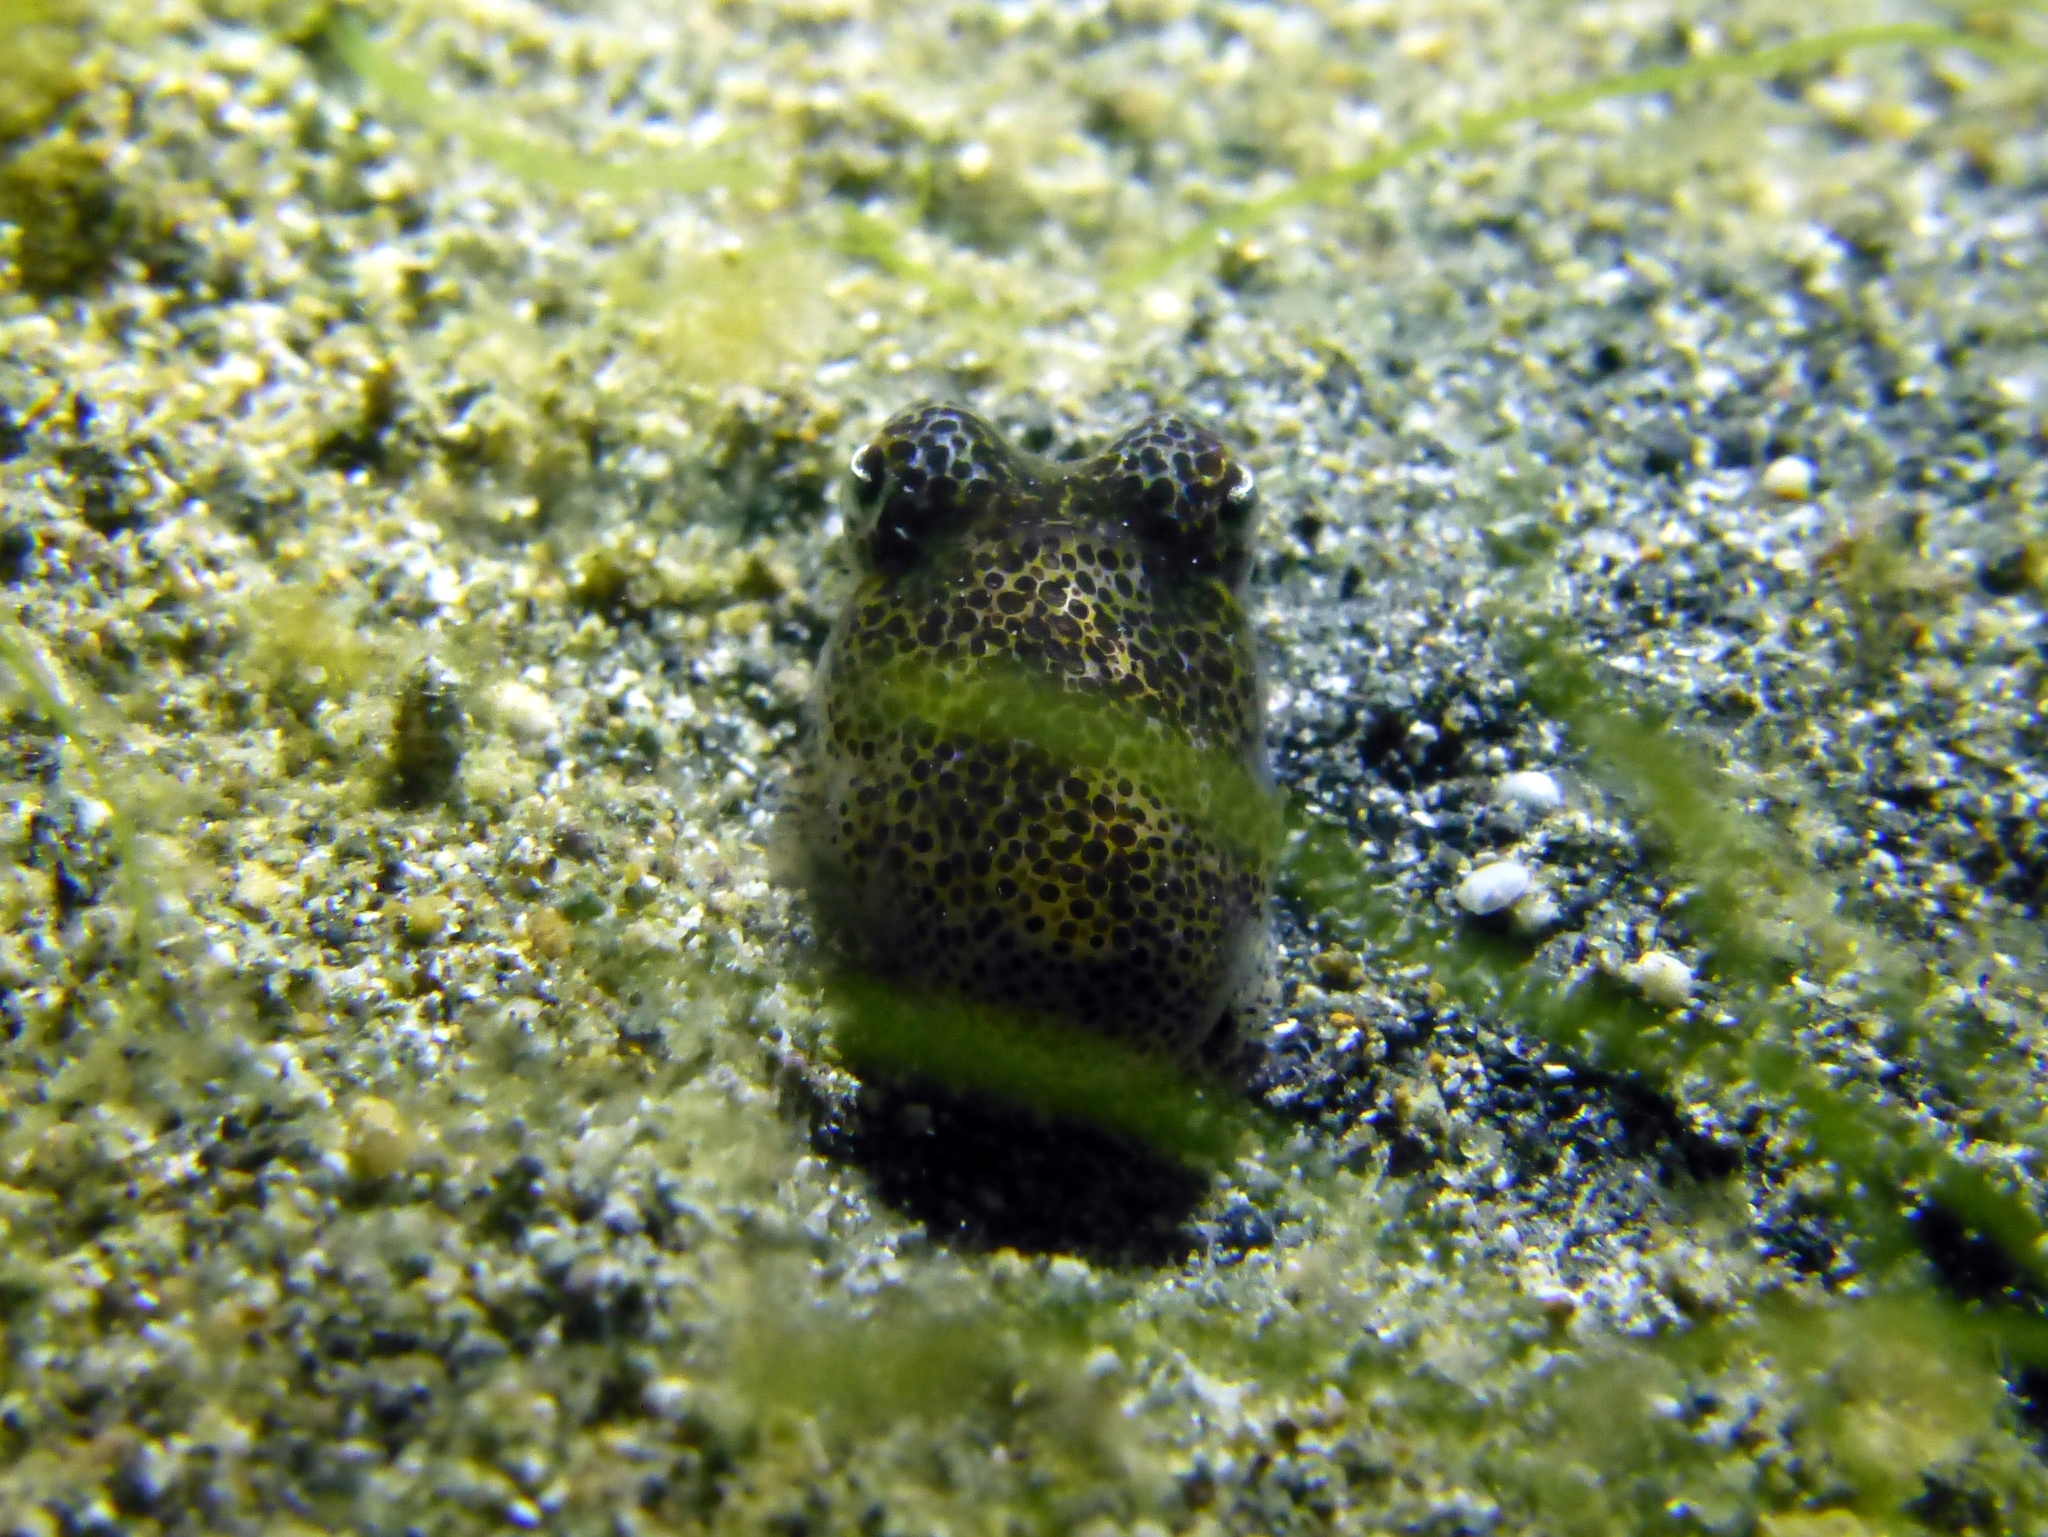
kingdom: Animalia
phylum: Mollusca
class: Cephalopoda
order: Sepiida
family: Sepiolidae
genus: Euprymna
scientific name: Euprymna berryi
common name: Humming-bird bobtail squid
